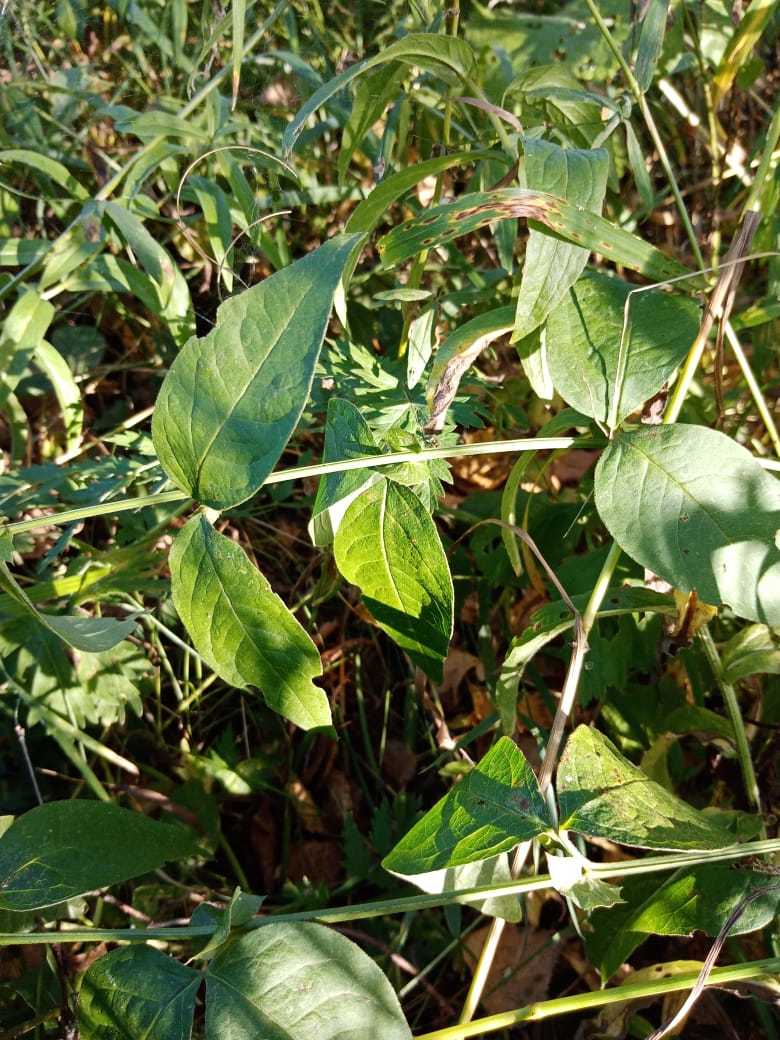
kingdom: Plantae
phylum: Tracheophyta
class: Magnoliopsida
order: Ericales
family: Primulaceae
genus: Lysimachia
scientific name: Lysimachia vulgaris
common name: Yellow loosestrife
